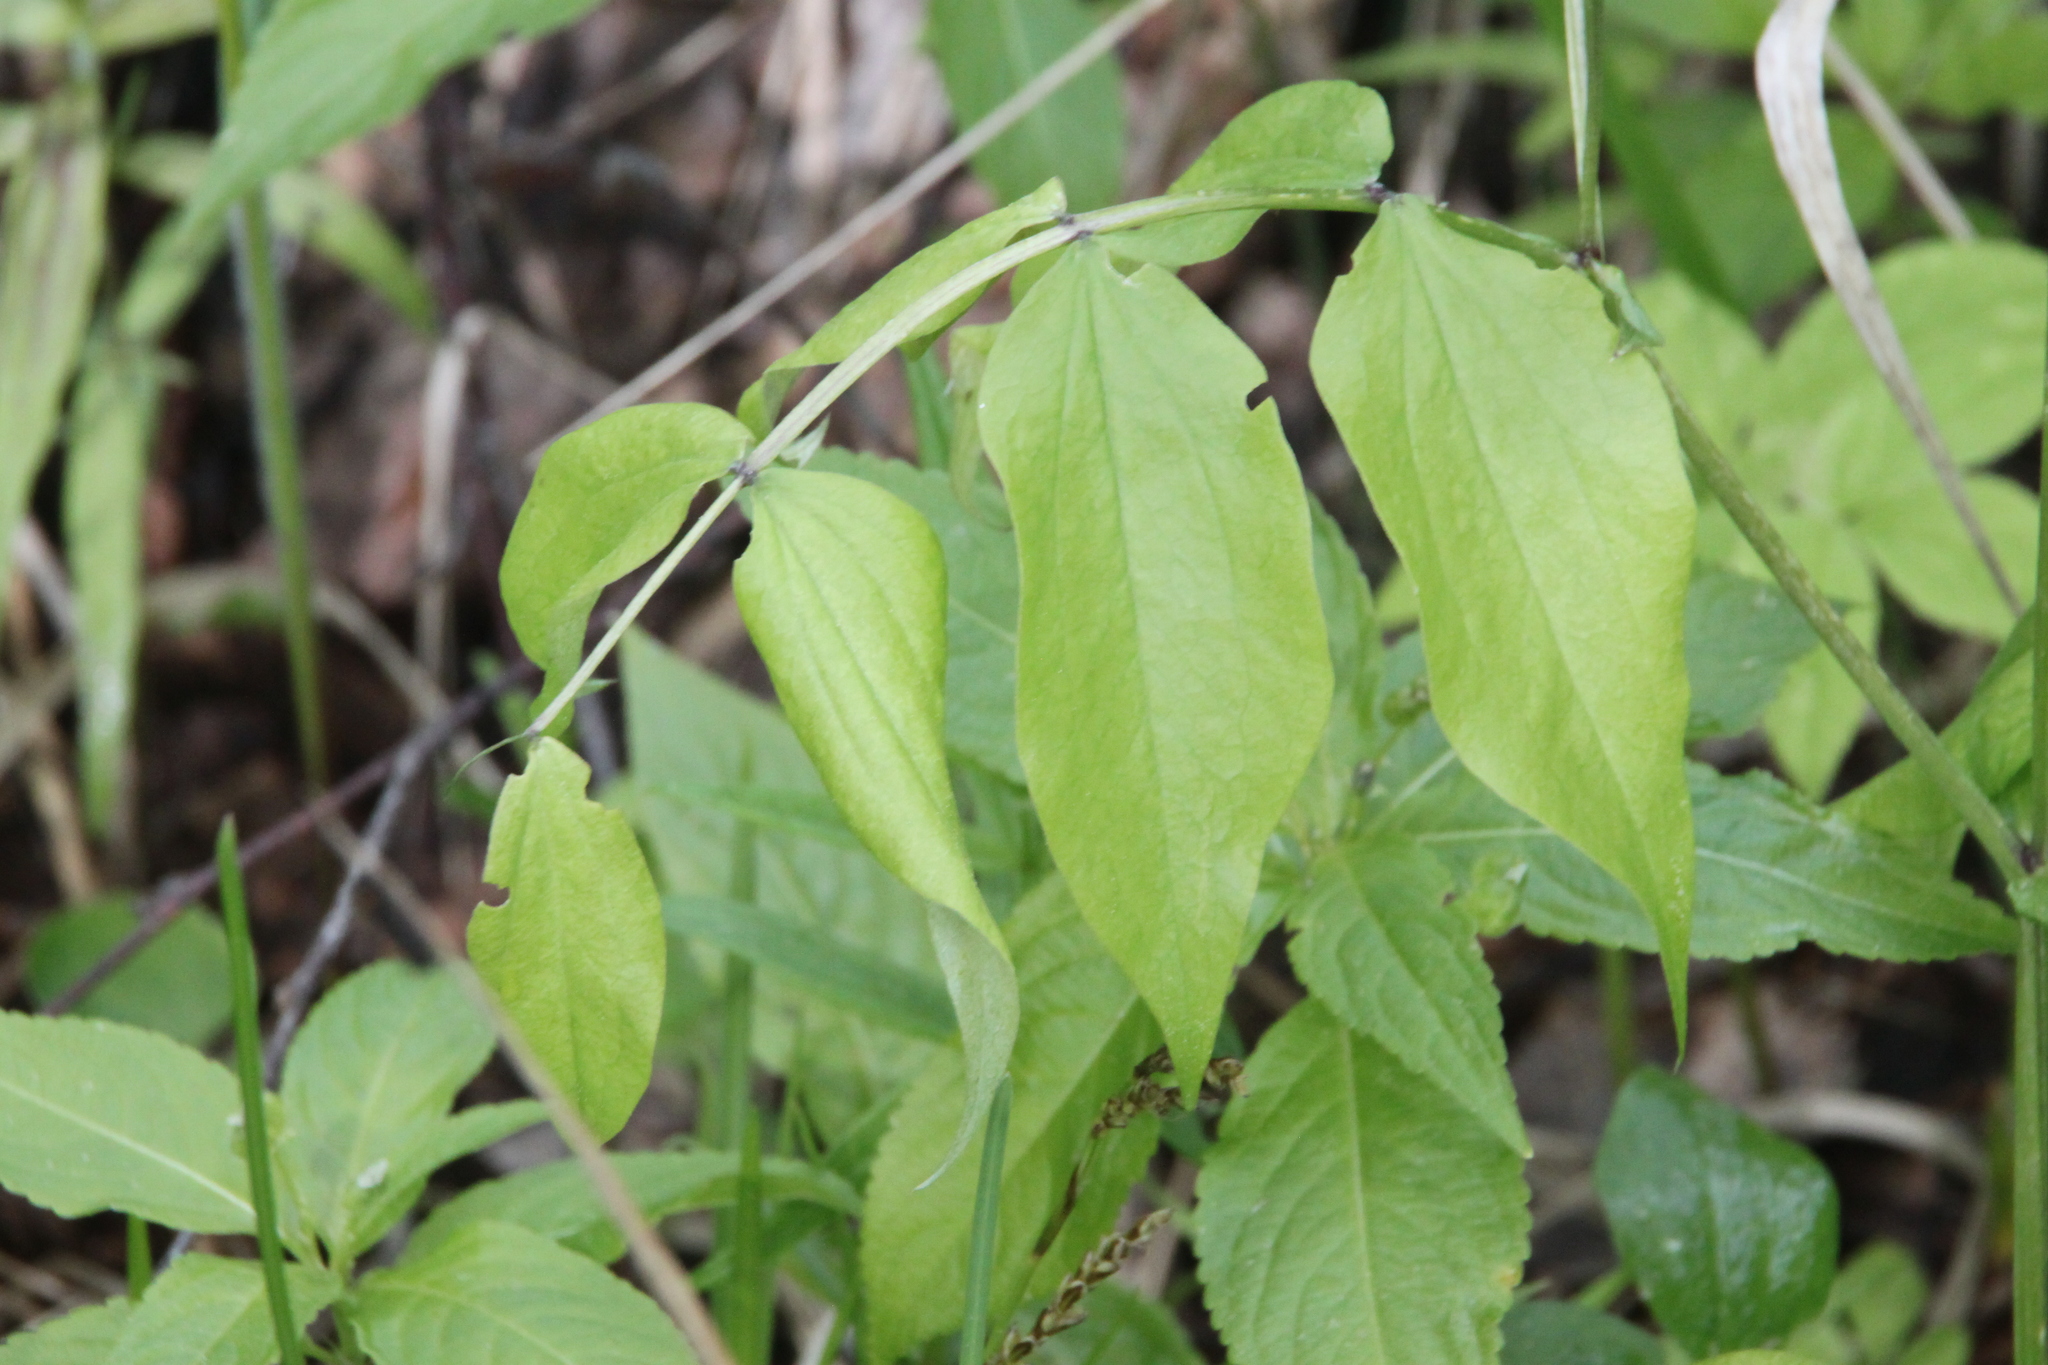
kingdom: Plantae
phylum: Tracheophyta
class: Magnoliopsida
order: Fabales
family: Fabaceae
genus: Lathyrus
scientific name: Lathyrus vernus
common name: Spring pea
